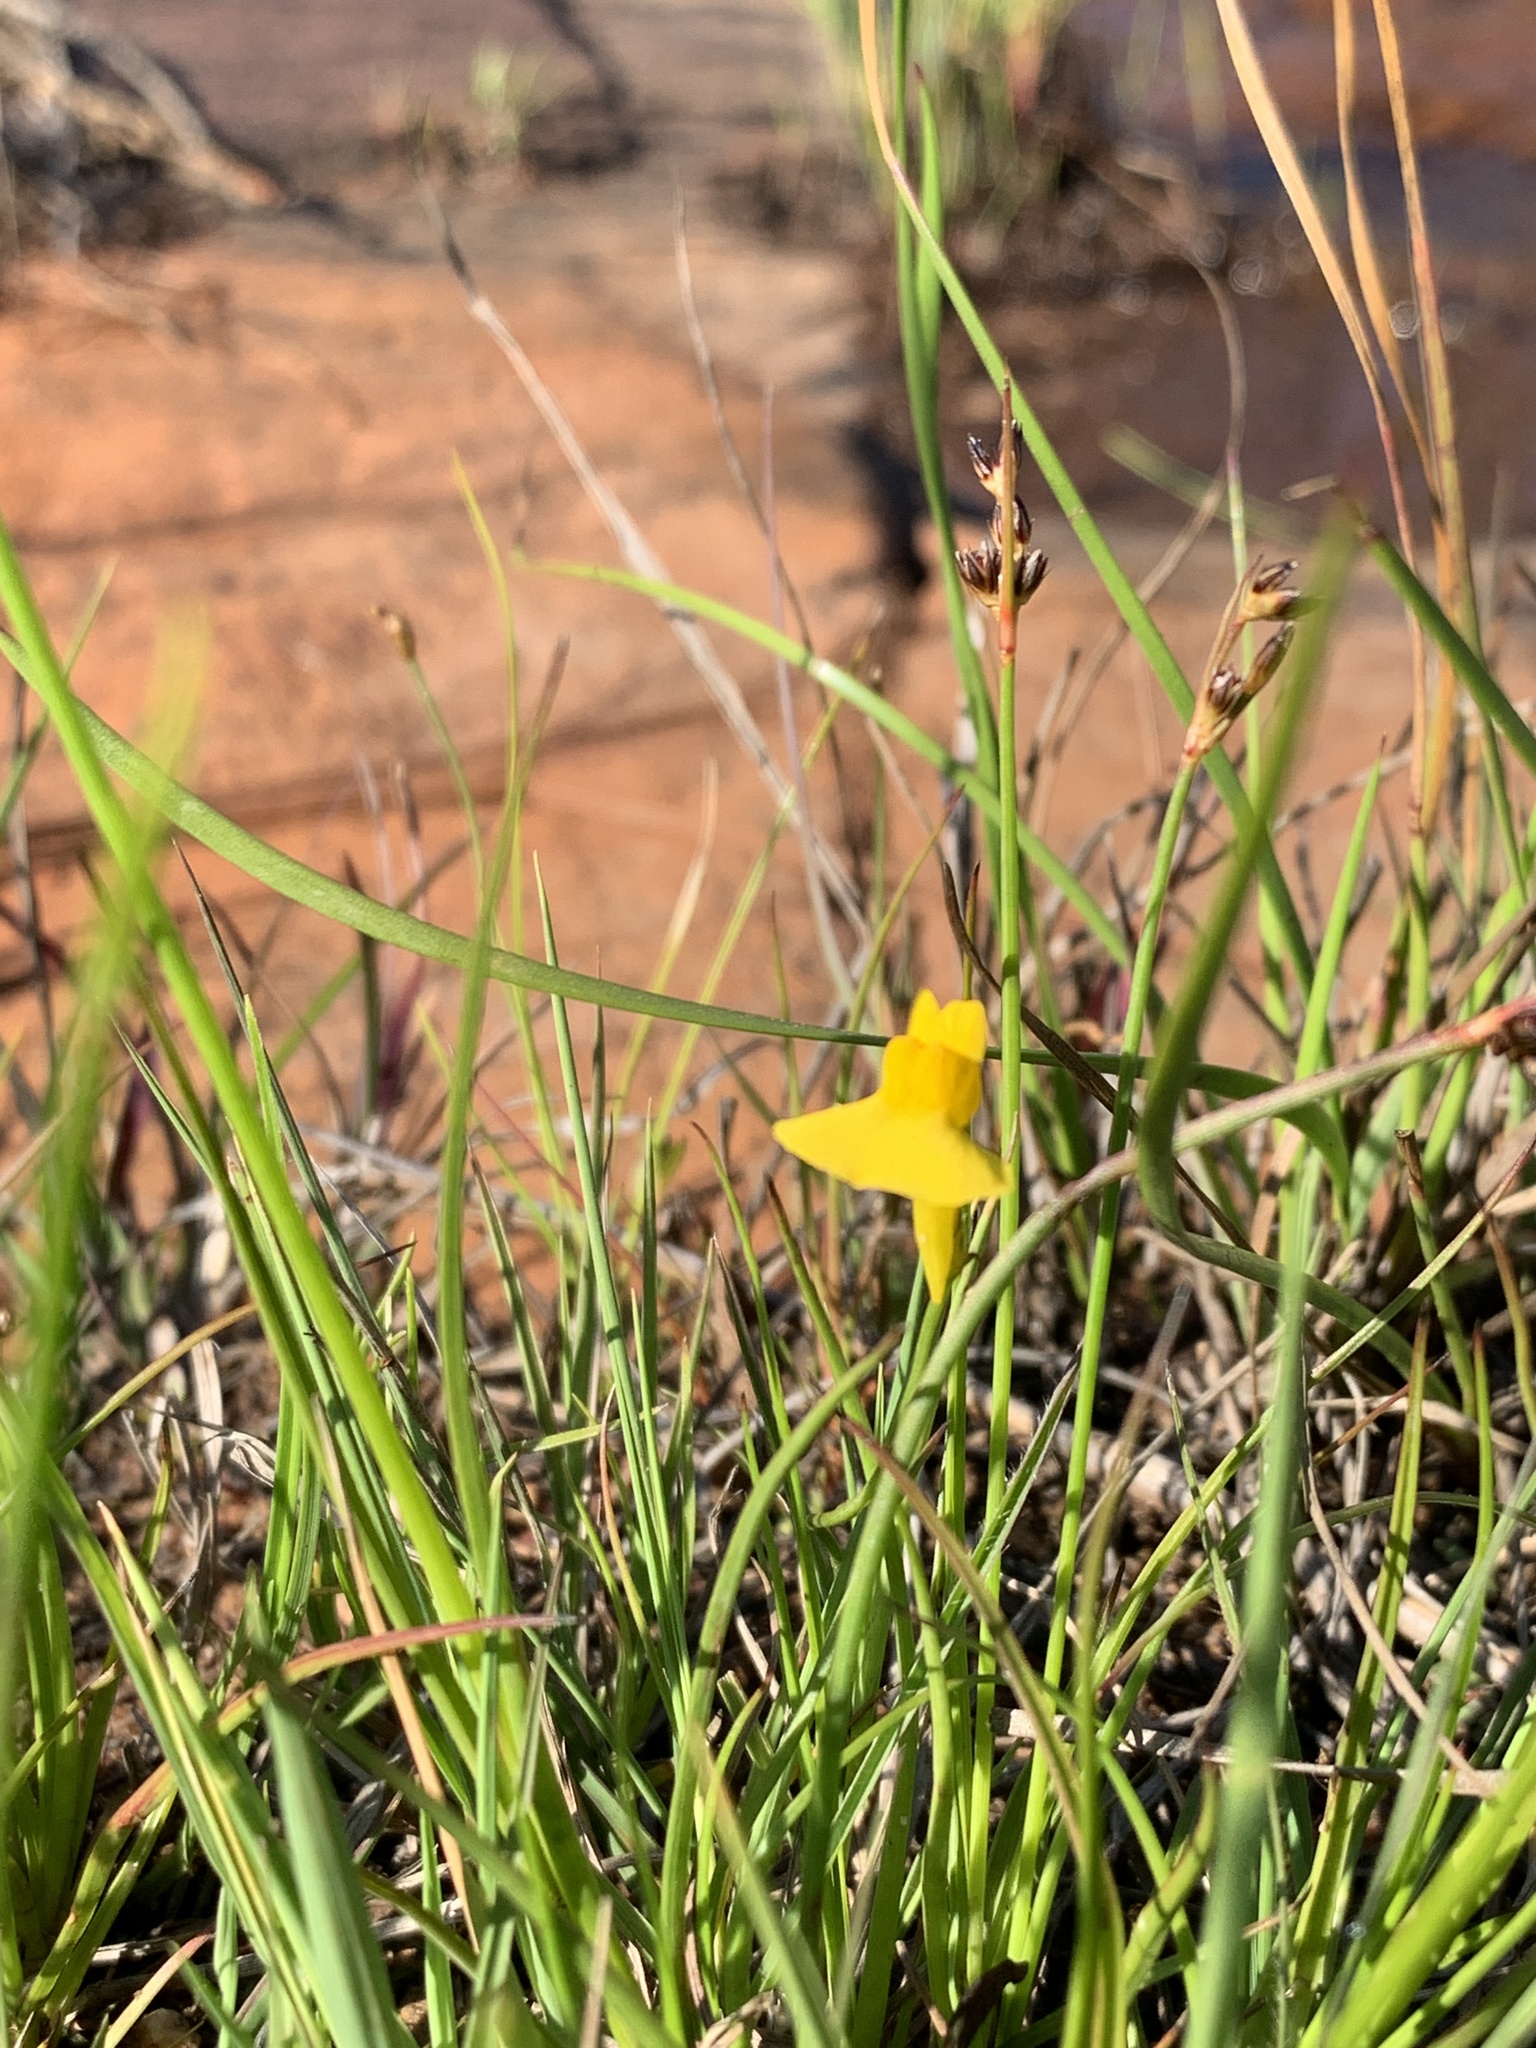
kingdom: Plantae
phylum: Tracheophyta
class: Magnoliopsida
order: Lamiales
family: Lentibulariaceae
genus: Utricularia
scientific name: Utricularia prehensilis
